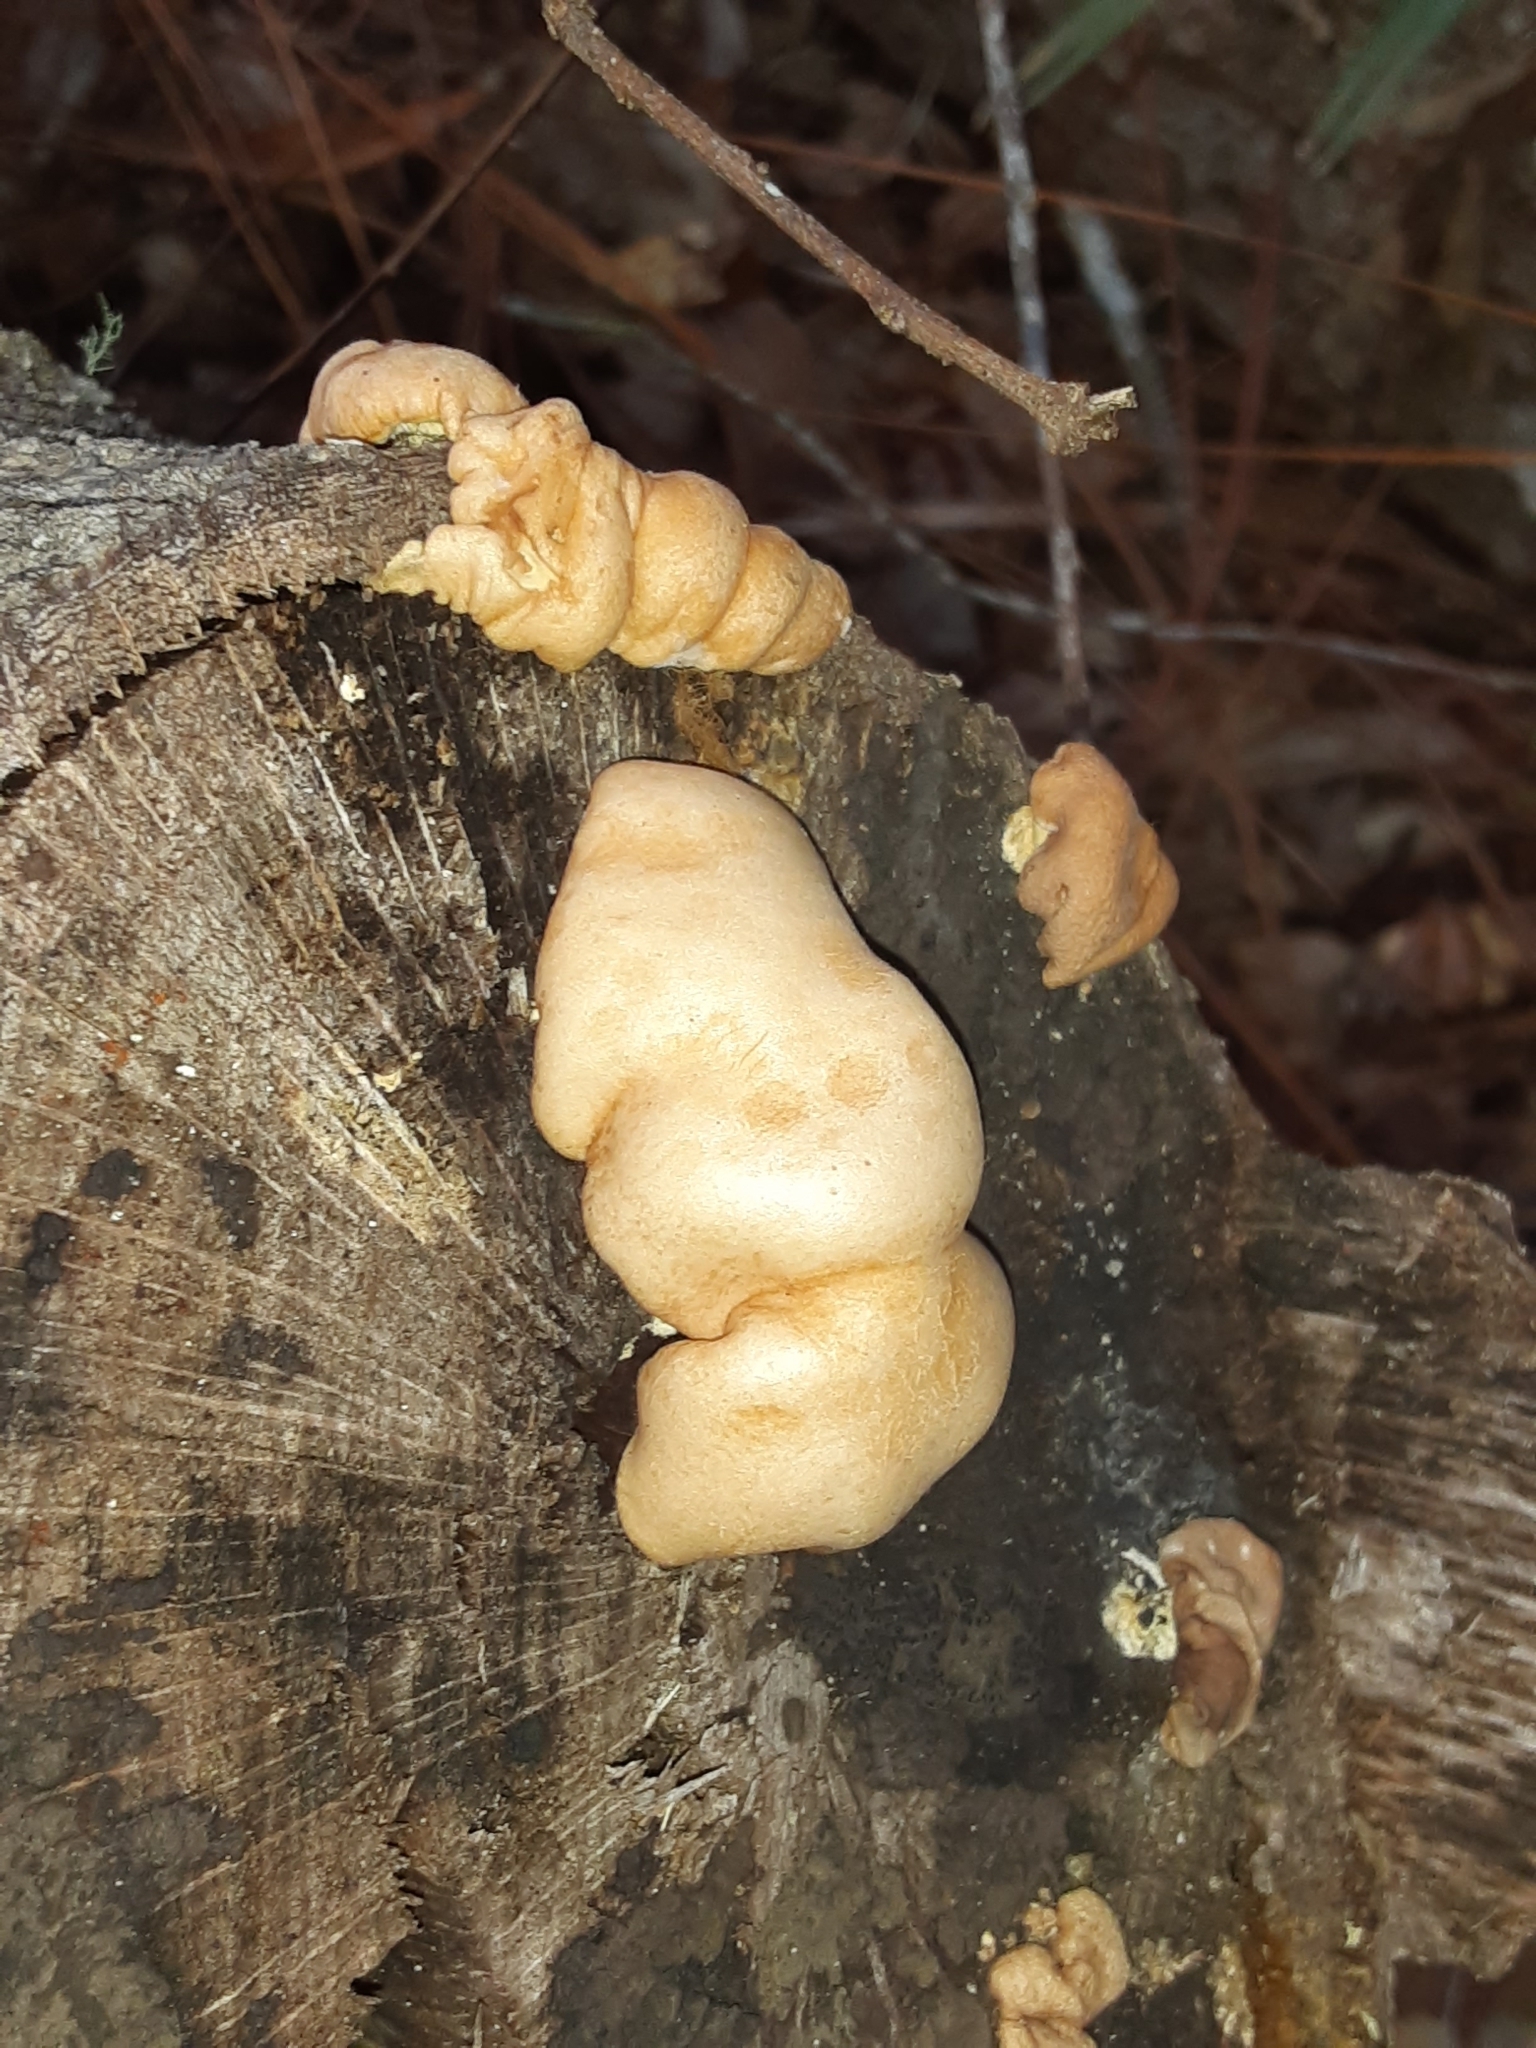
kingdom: Fungi
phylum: Basidiomycota
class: Agaricomycetes
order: Agaricales
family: Pleurotaceae
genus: Pleurotus
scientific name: Pleurotus ostreatus
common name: Oyster mushroom
